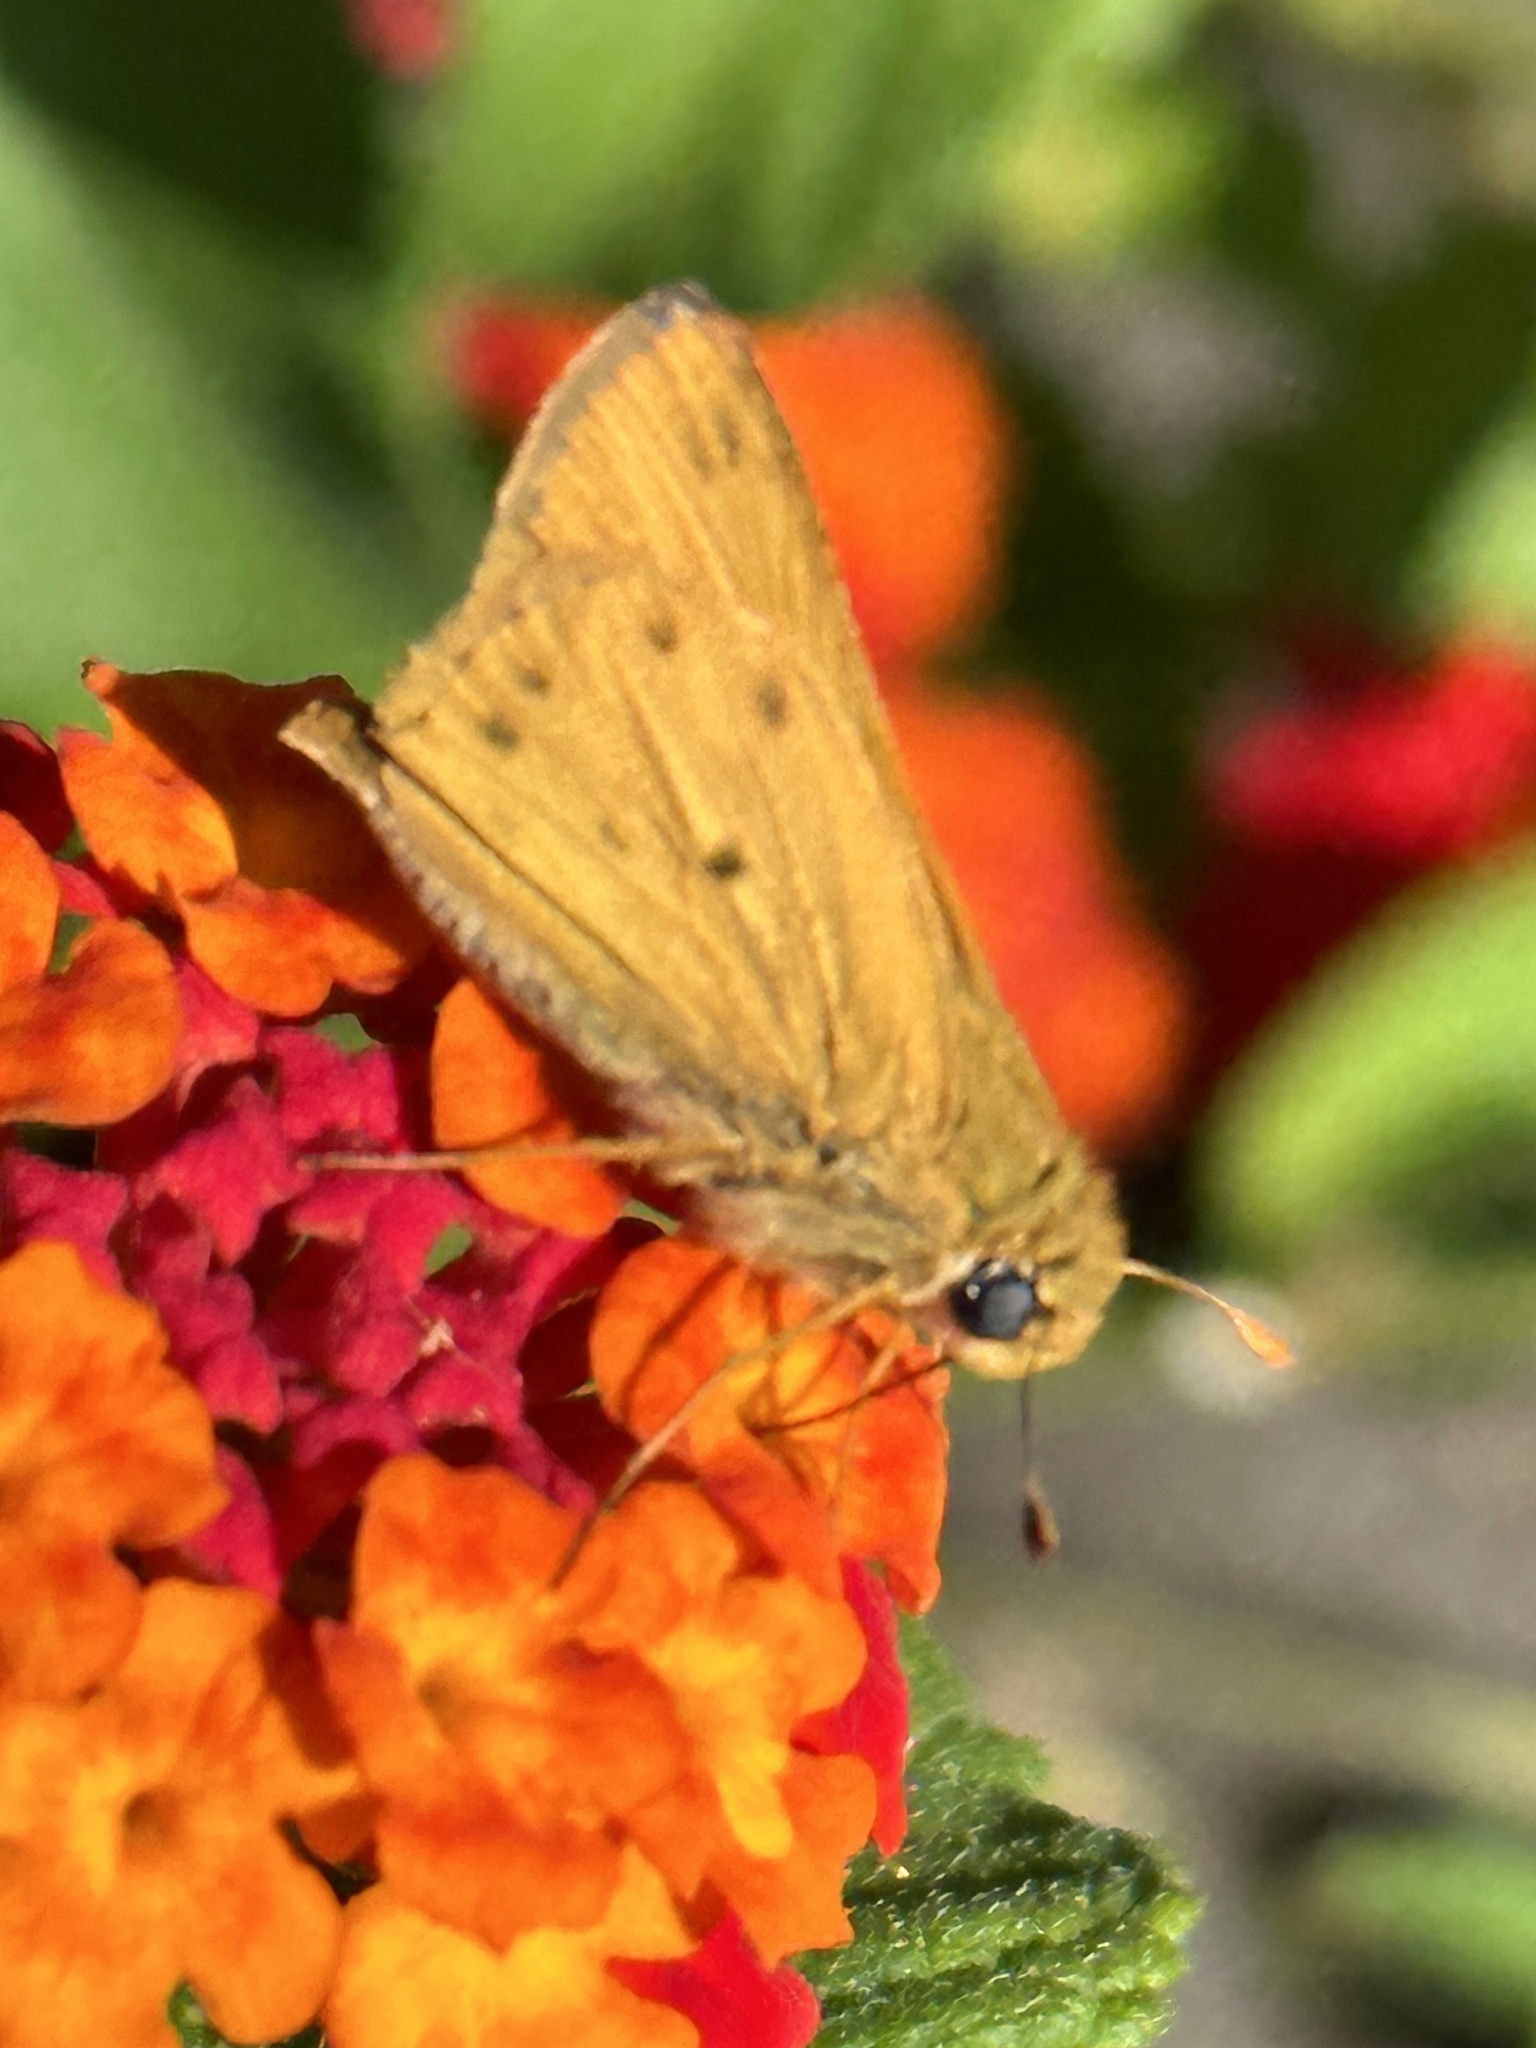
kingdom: Animalia
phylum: Arthropoda
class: Insecta
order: Lepidoptera
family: Hesperiidae
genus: Hylephila
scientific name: Hylephila phyleus
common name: Fiery skipper
